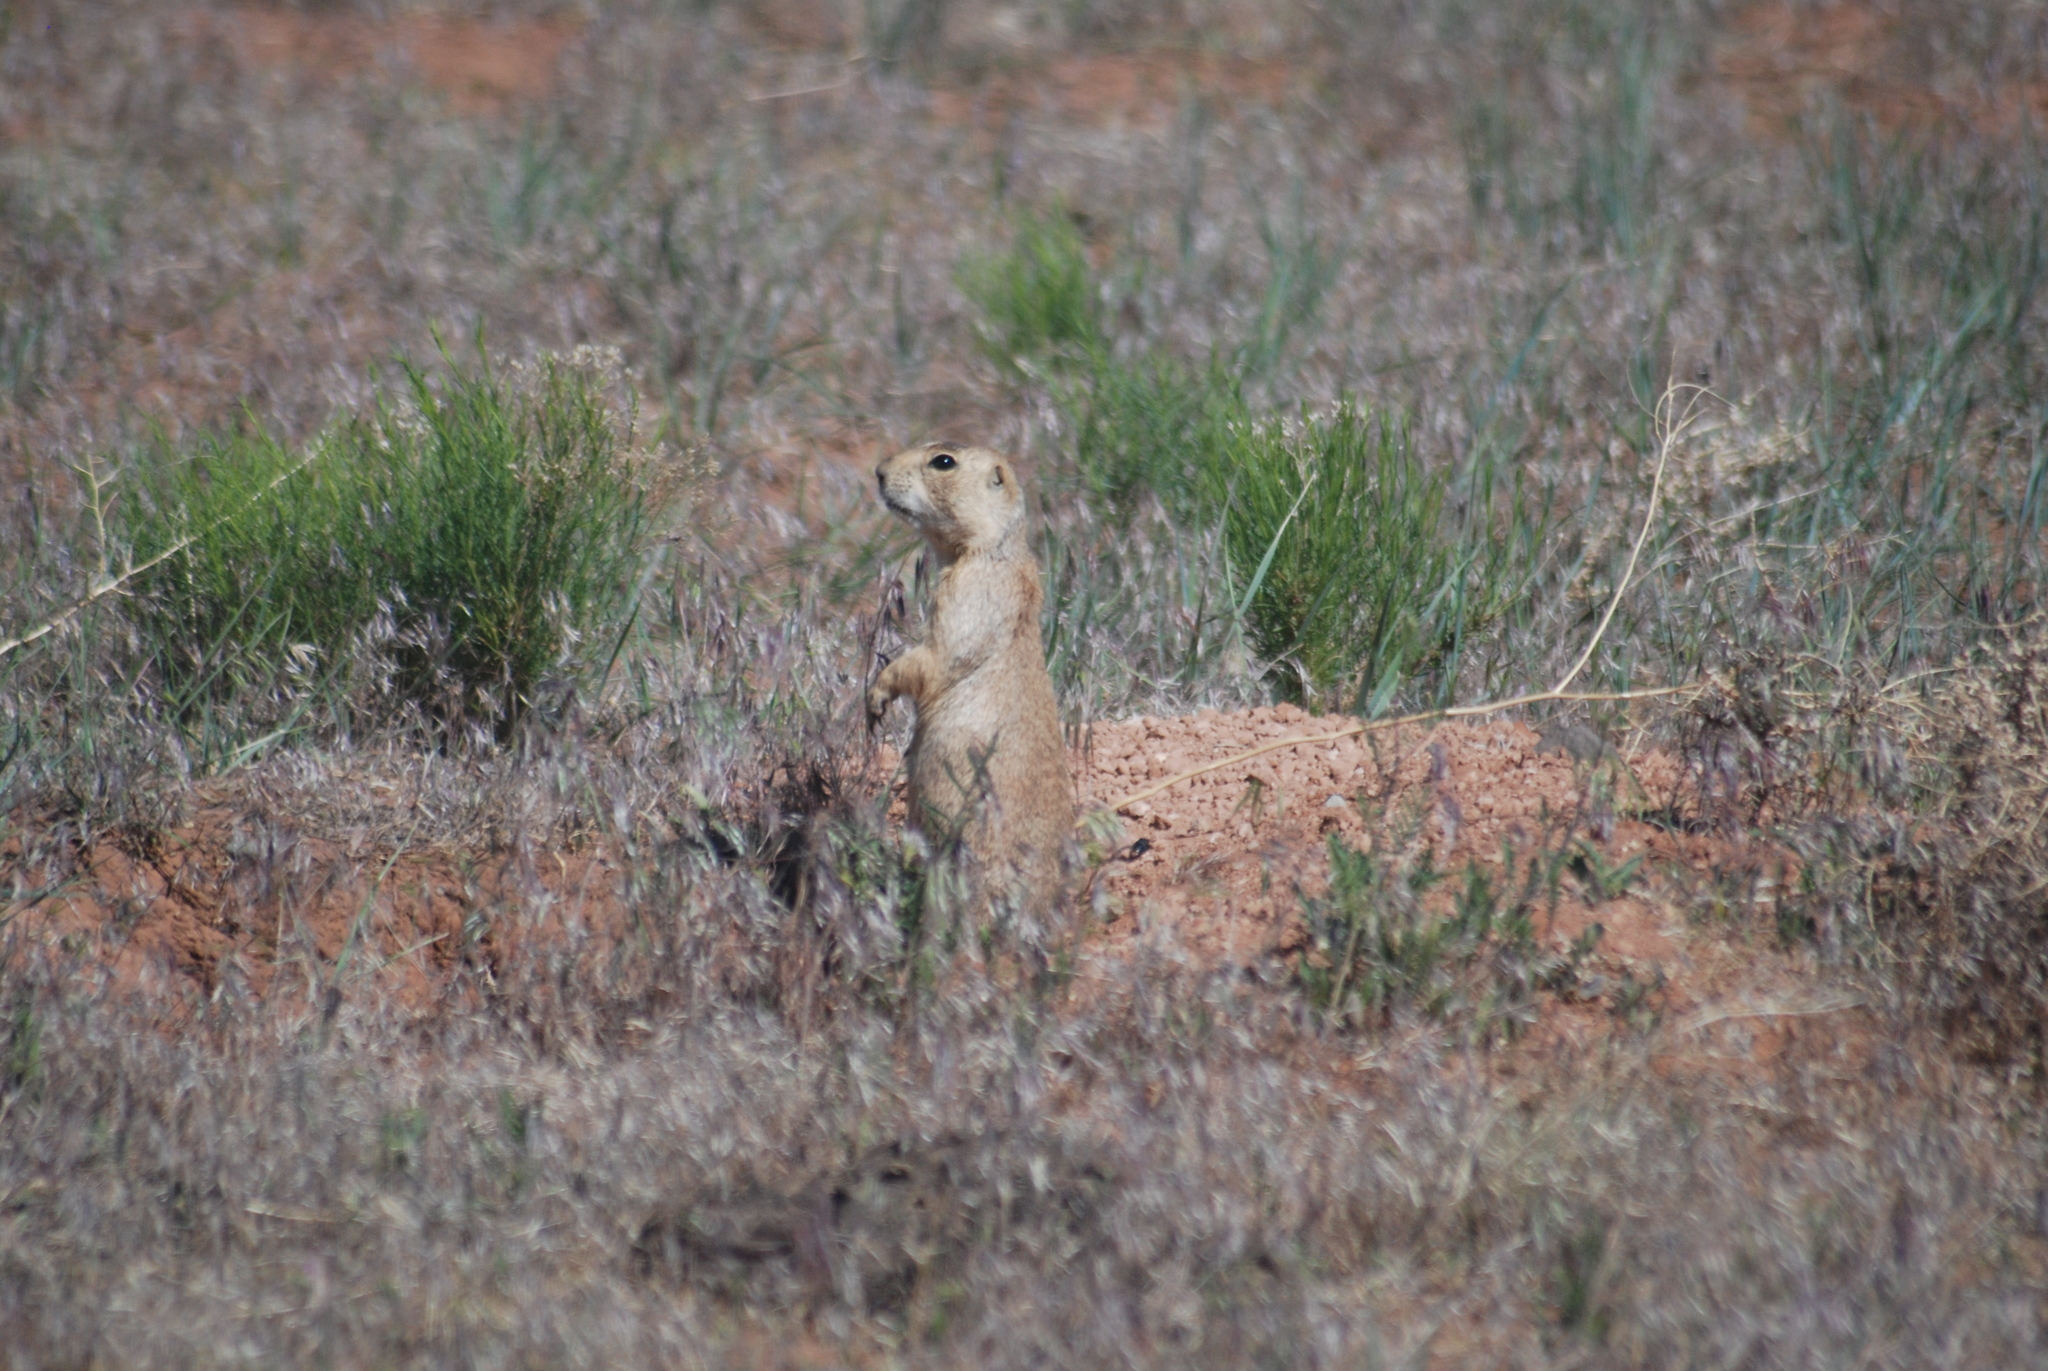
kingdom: Animalia
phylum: Chordata
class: Mammalia
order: Rodentia
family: Sciuridae
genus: Cynomys
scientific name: Cynomys gunnisoni
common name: Gunnison's prairie dog
